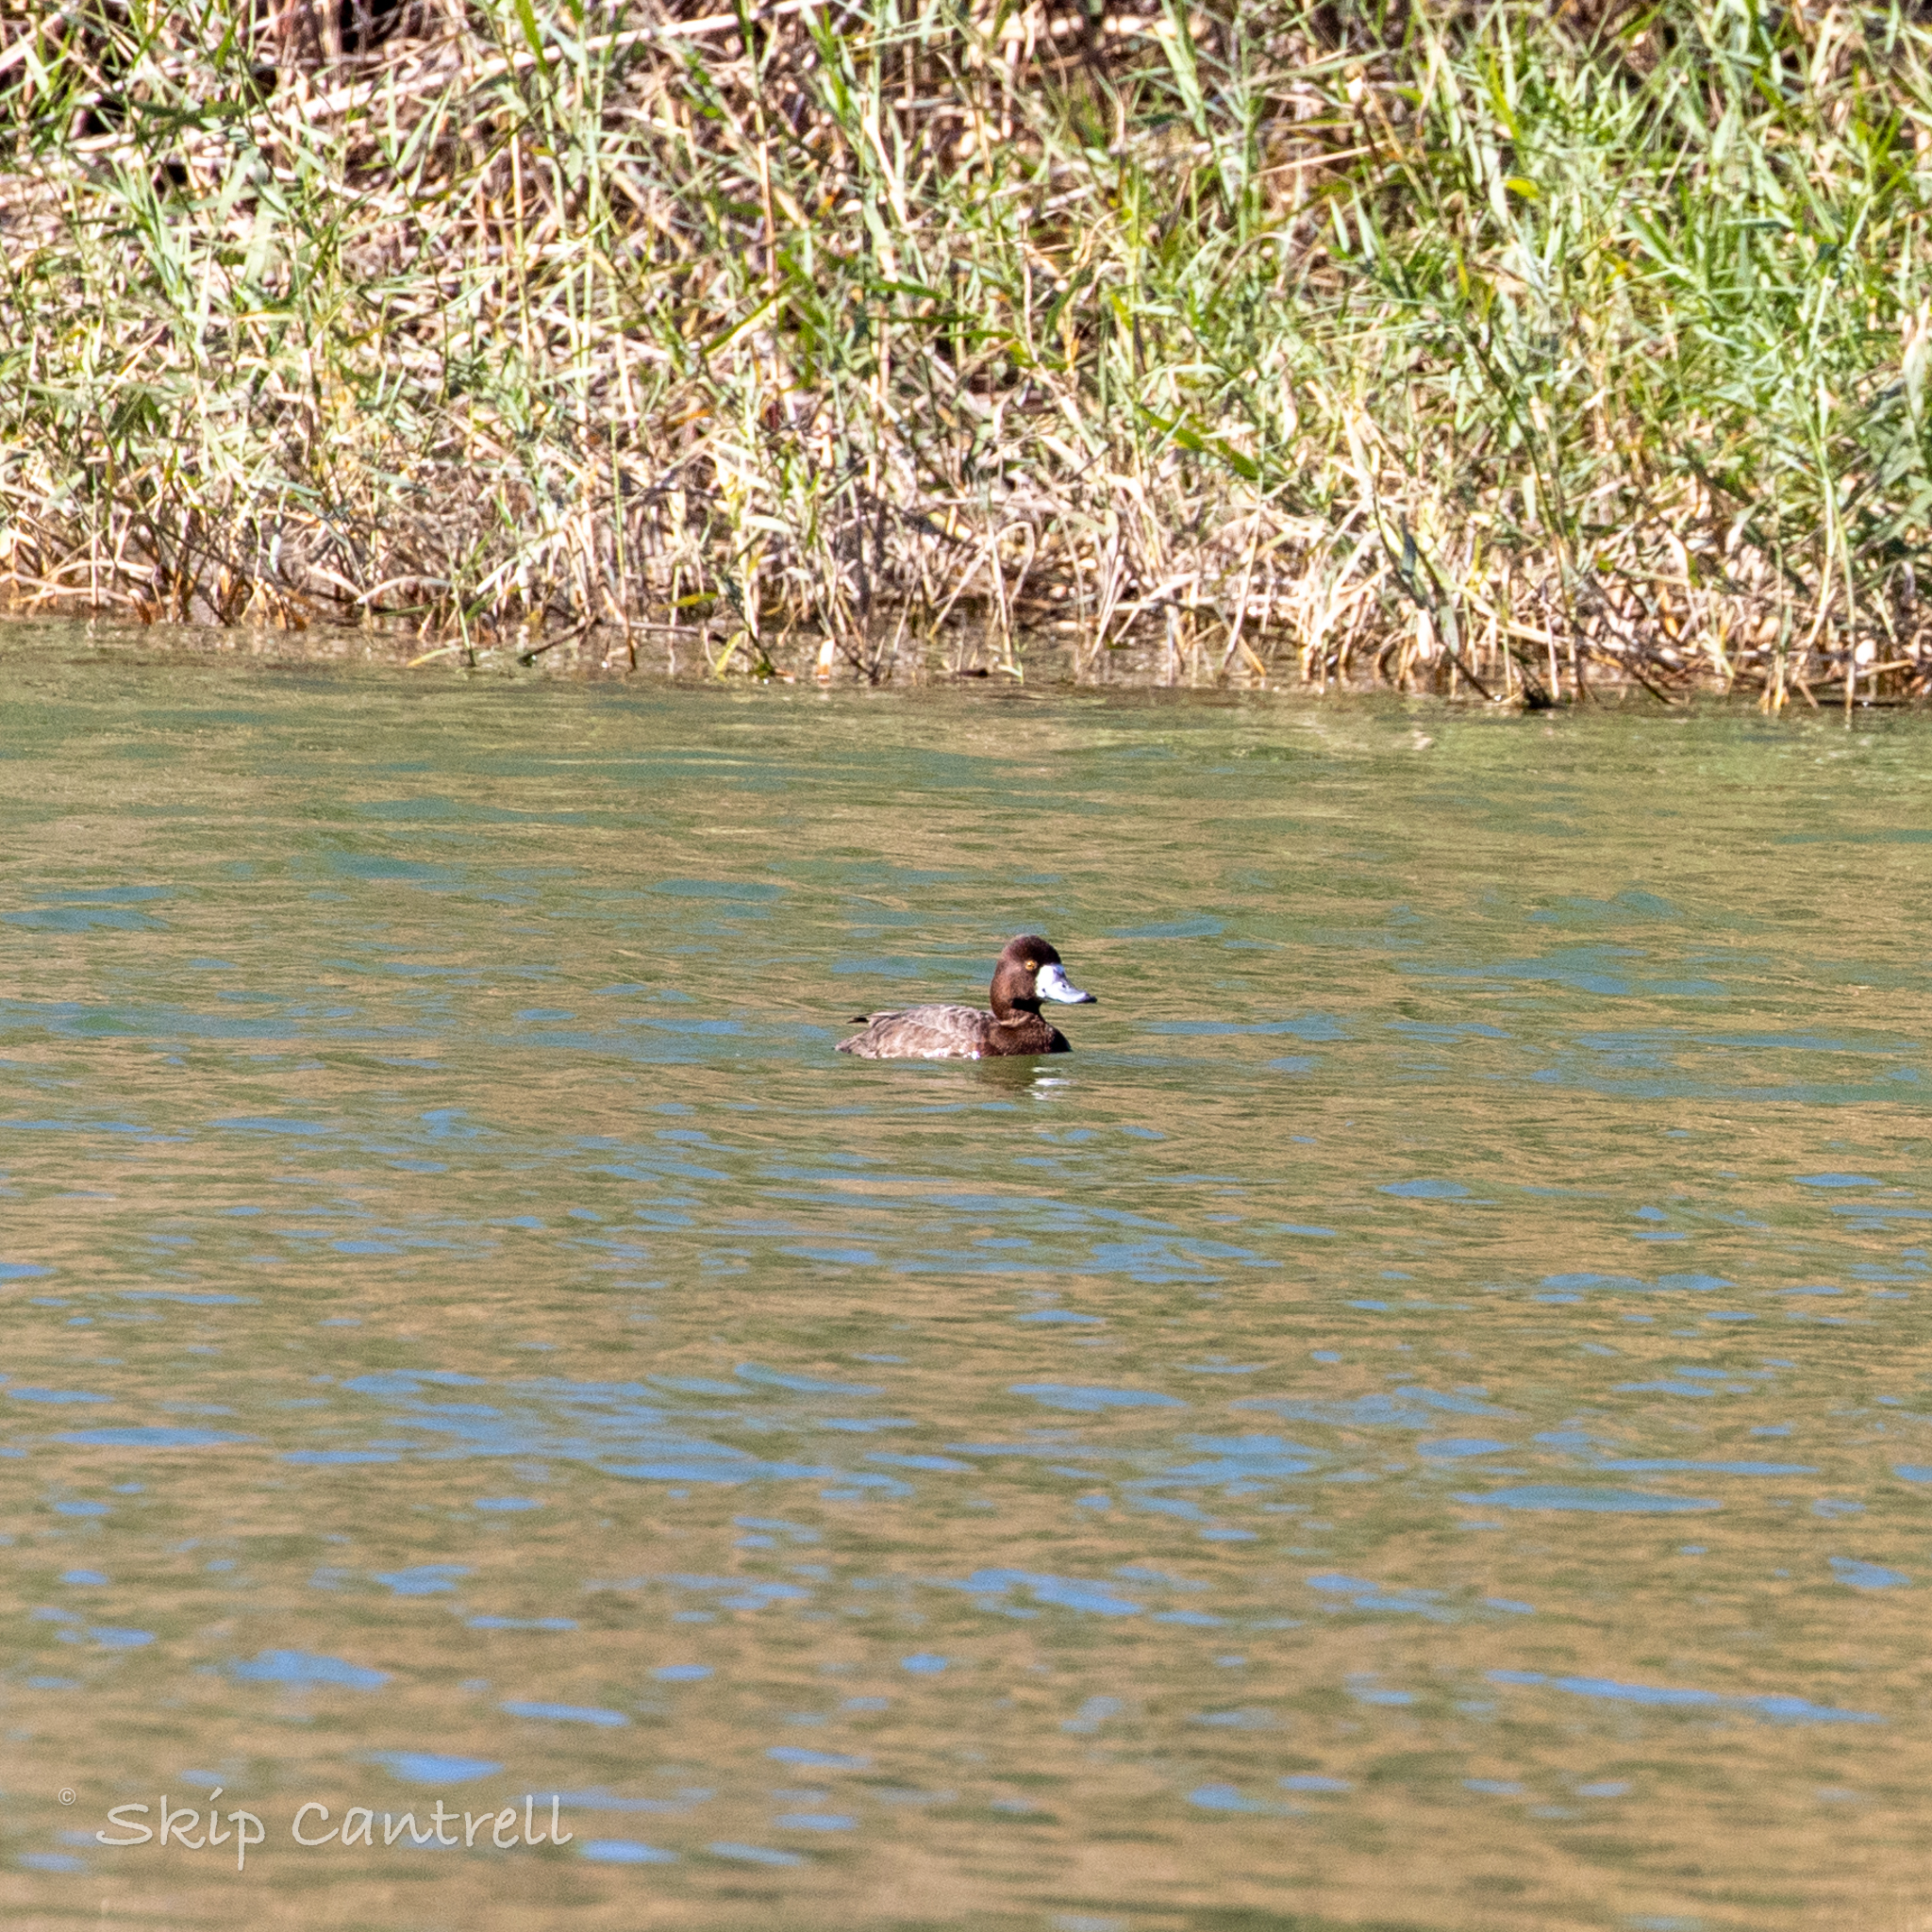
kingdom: Animalia
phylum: Chordata
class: Aves
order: Anseriformes
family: Anatidae
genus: Aythya
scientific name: Aythya affinis
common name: Lesser scaup
